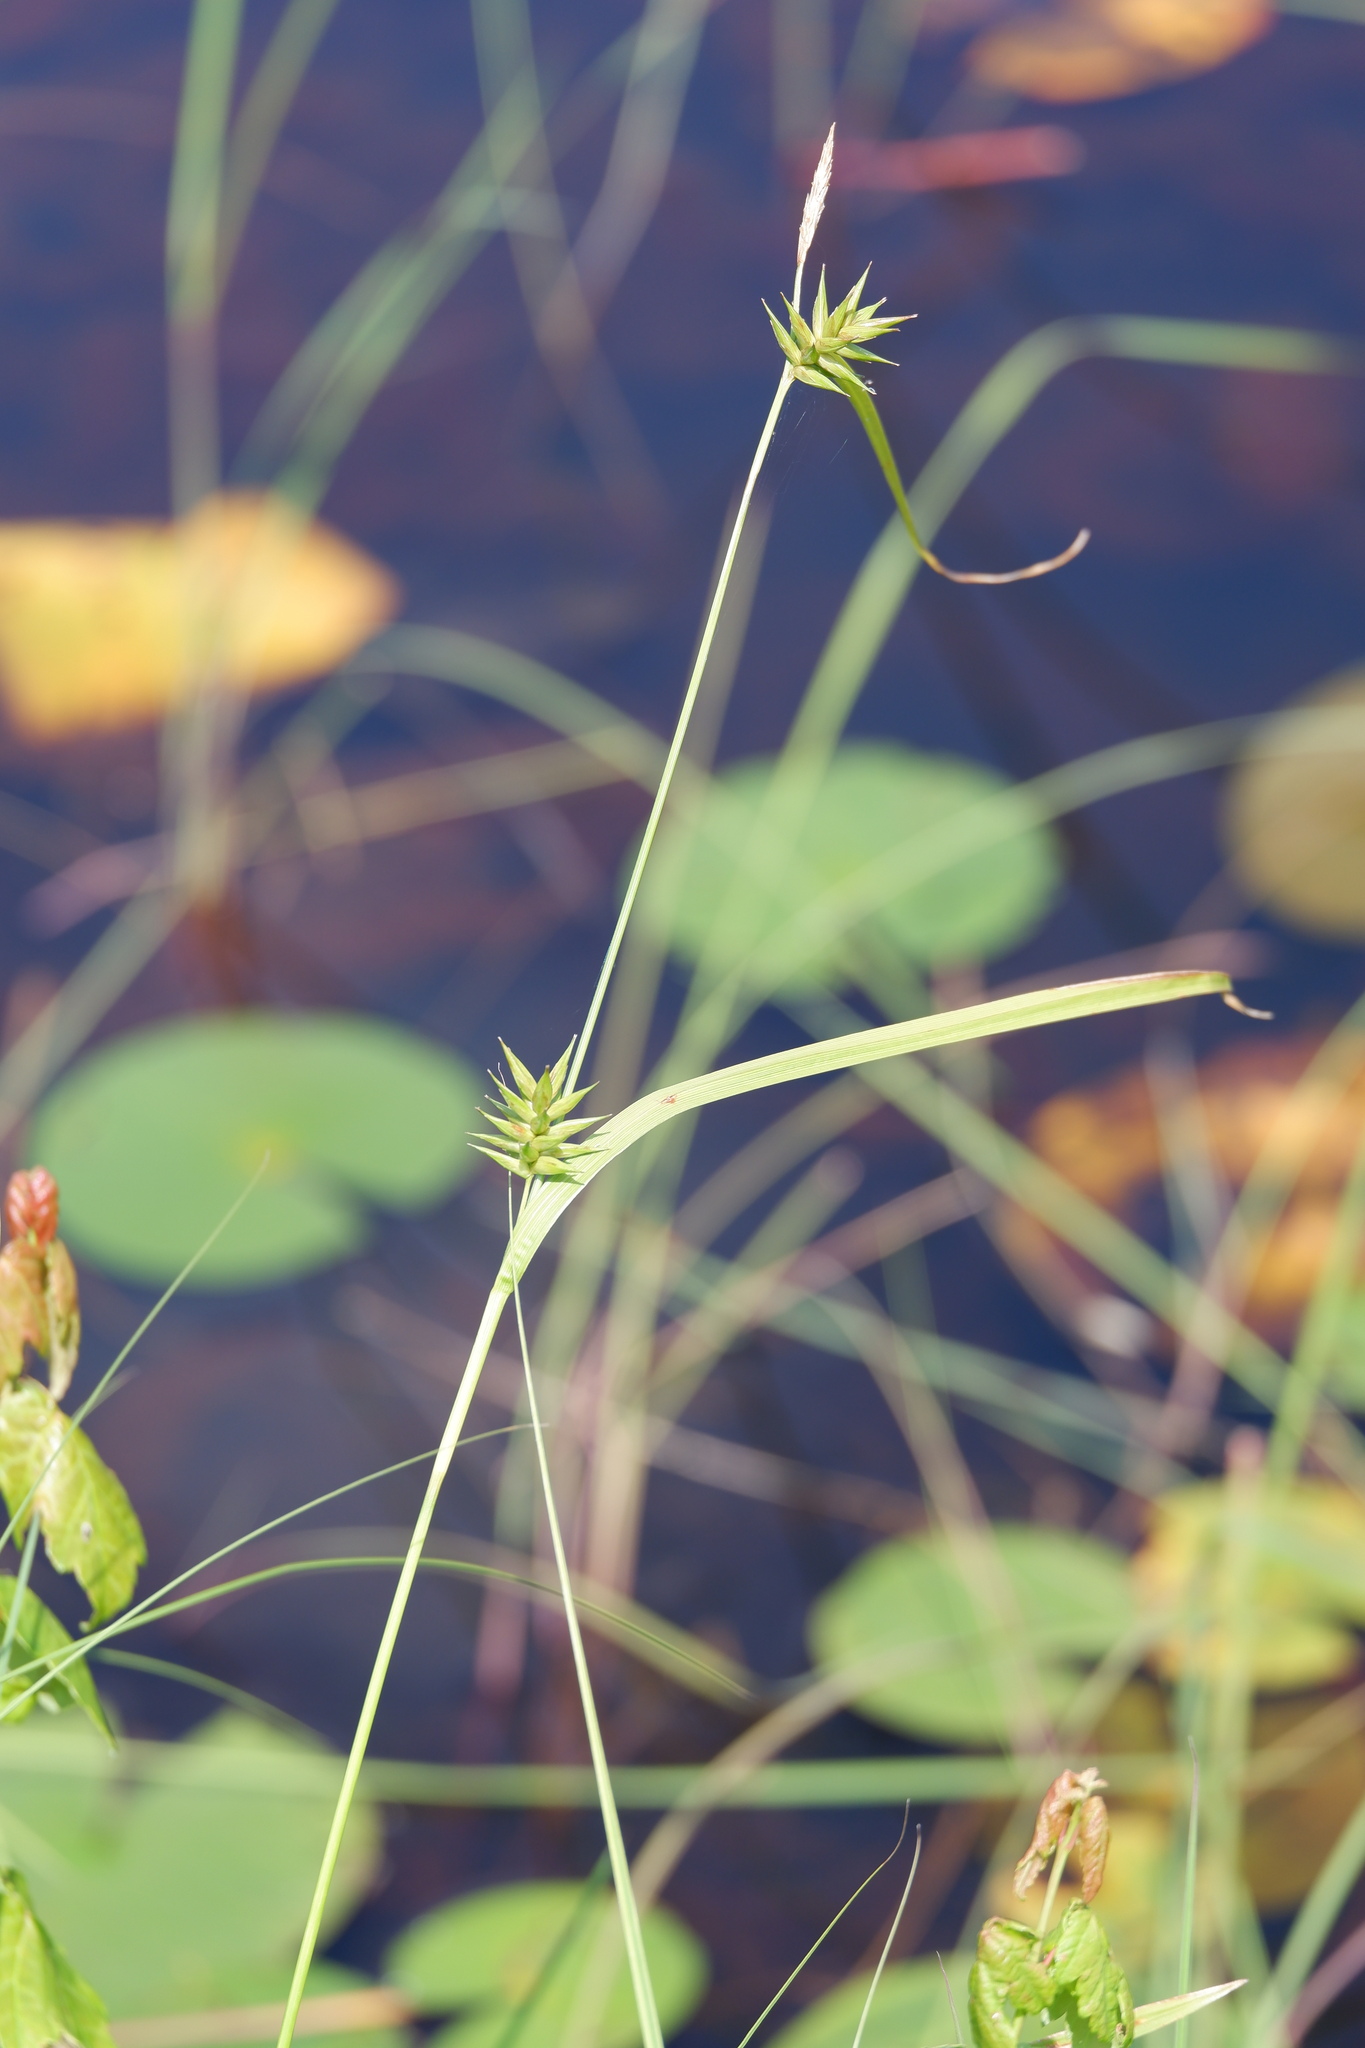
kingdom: Plantae
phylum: Tracheophyta
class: Liliopsida
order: Poales
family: Cyperaceae
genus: Carex
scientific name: Carex folliculata
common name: Northern long sedge
